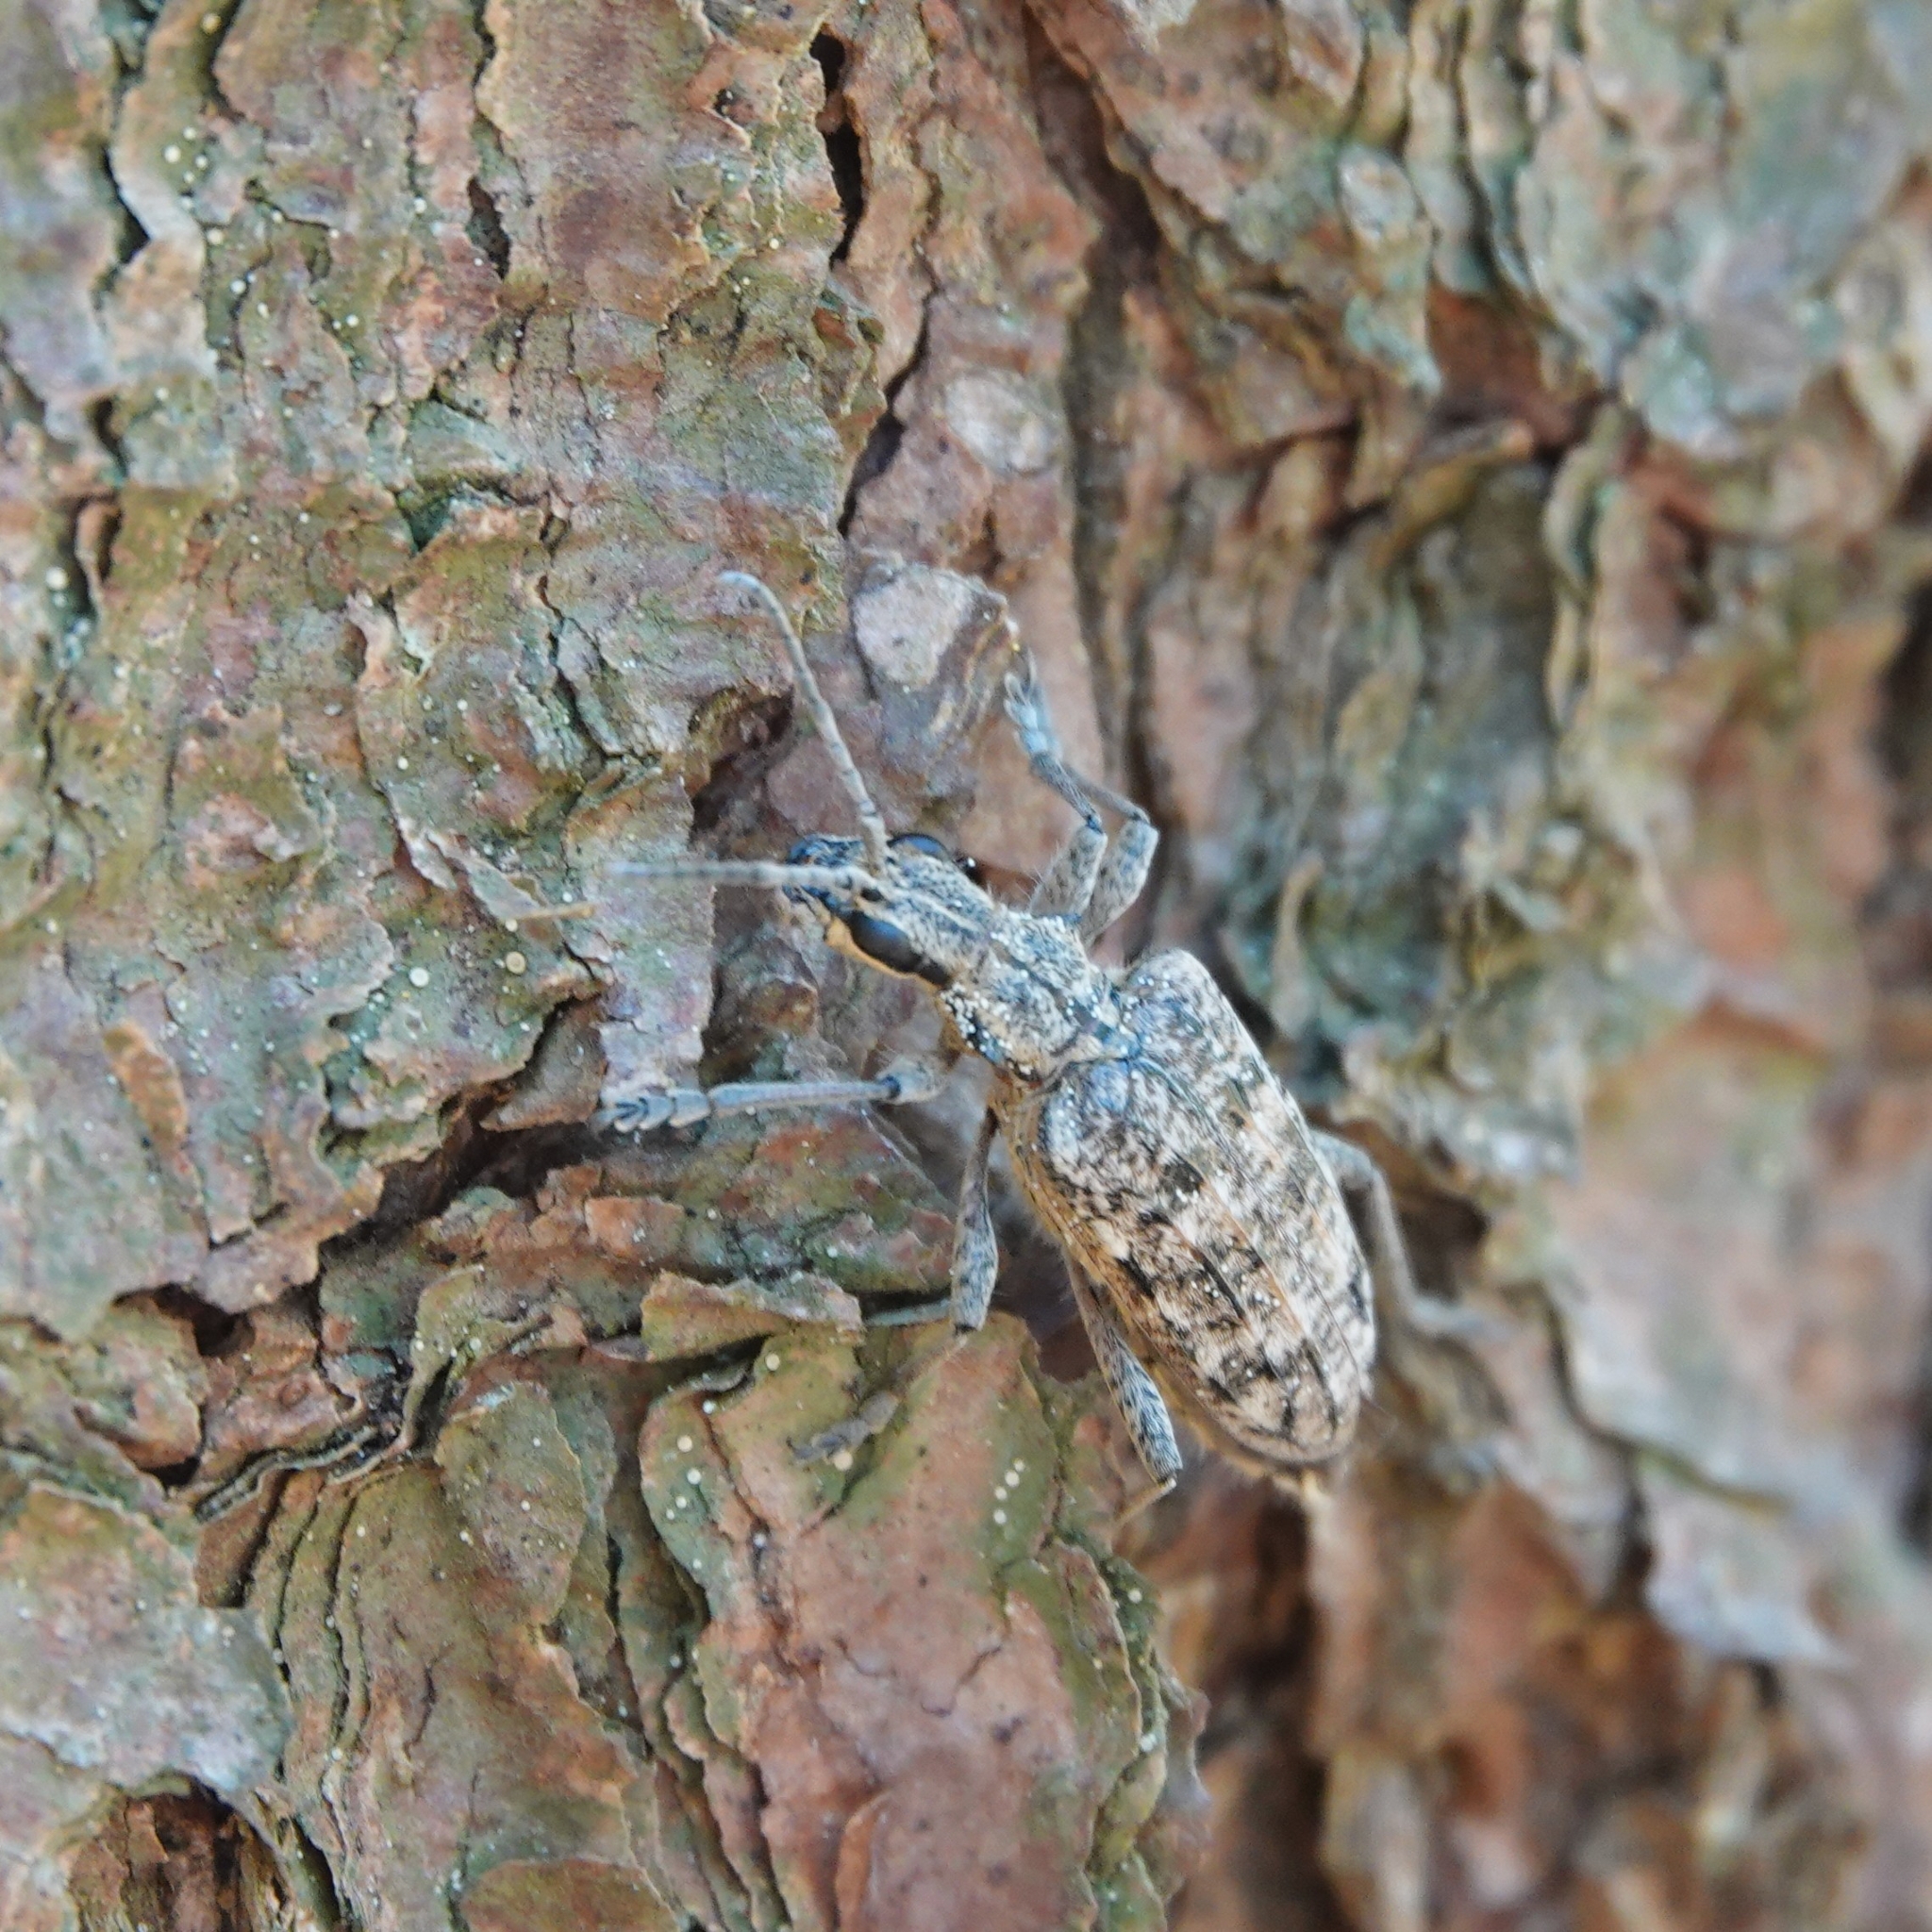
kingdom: Animalia
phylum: Arthropoda
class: Insecta
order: Coleoptera
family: Cerambycidae
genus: Rhagium
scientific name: Rhagium inquisitor
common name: Ribbed pine borer
